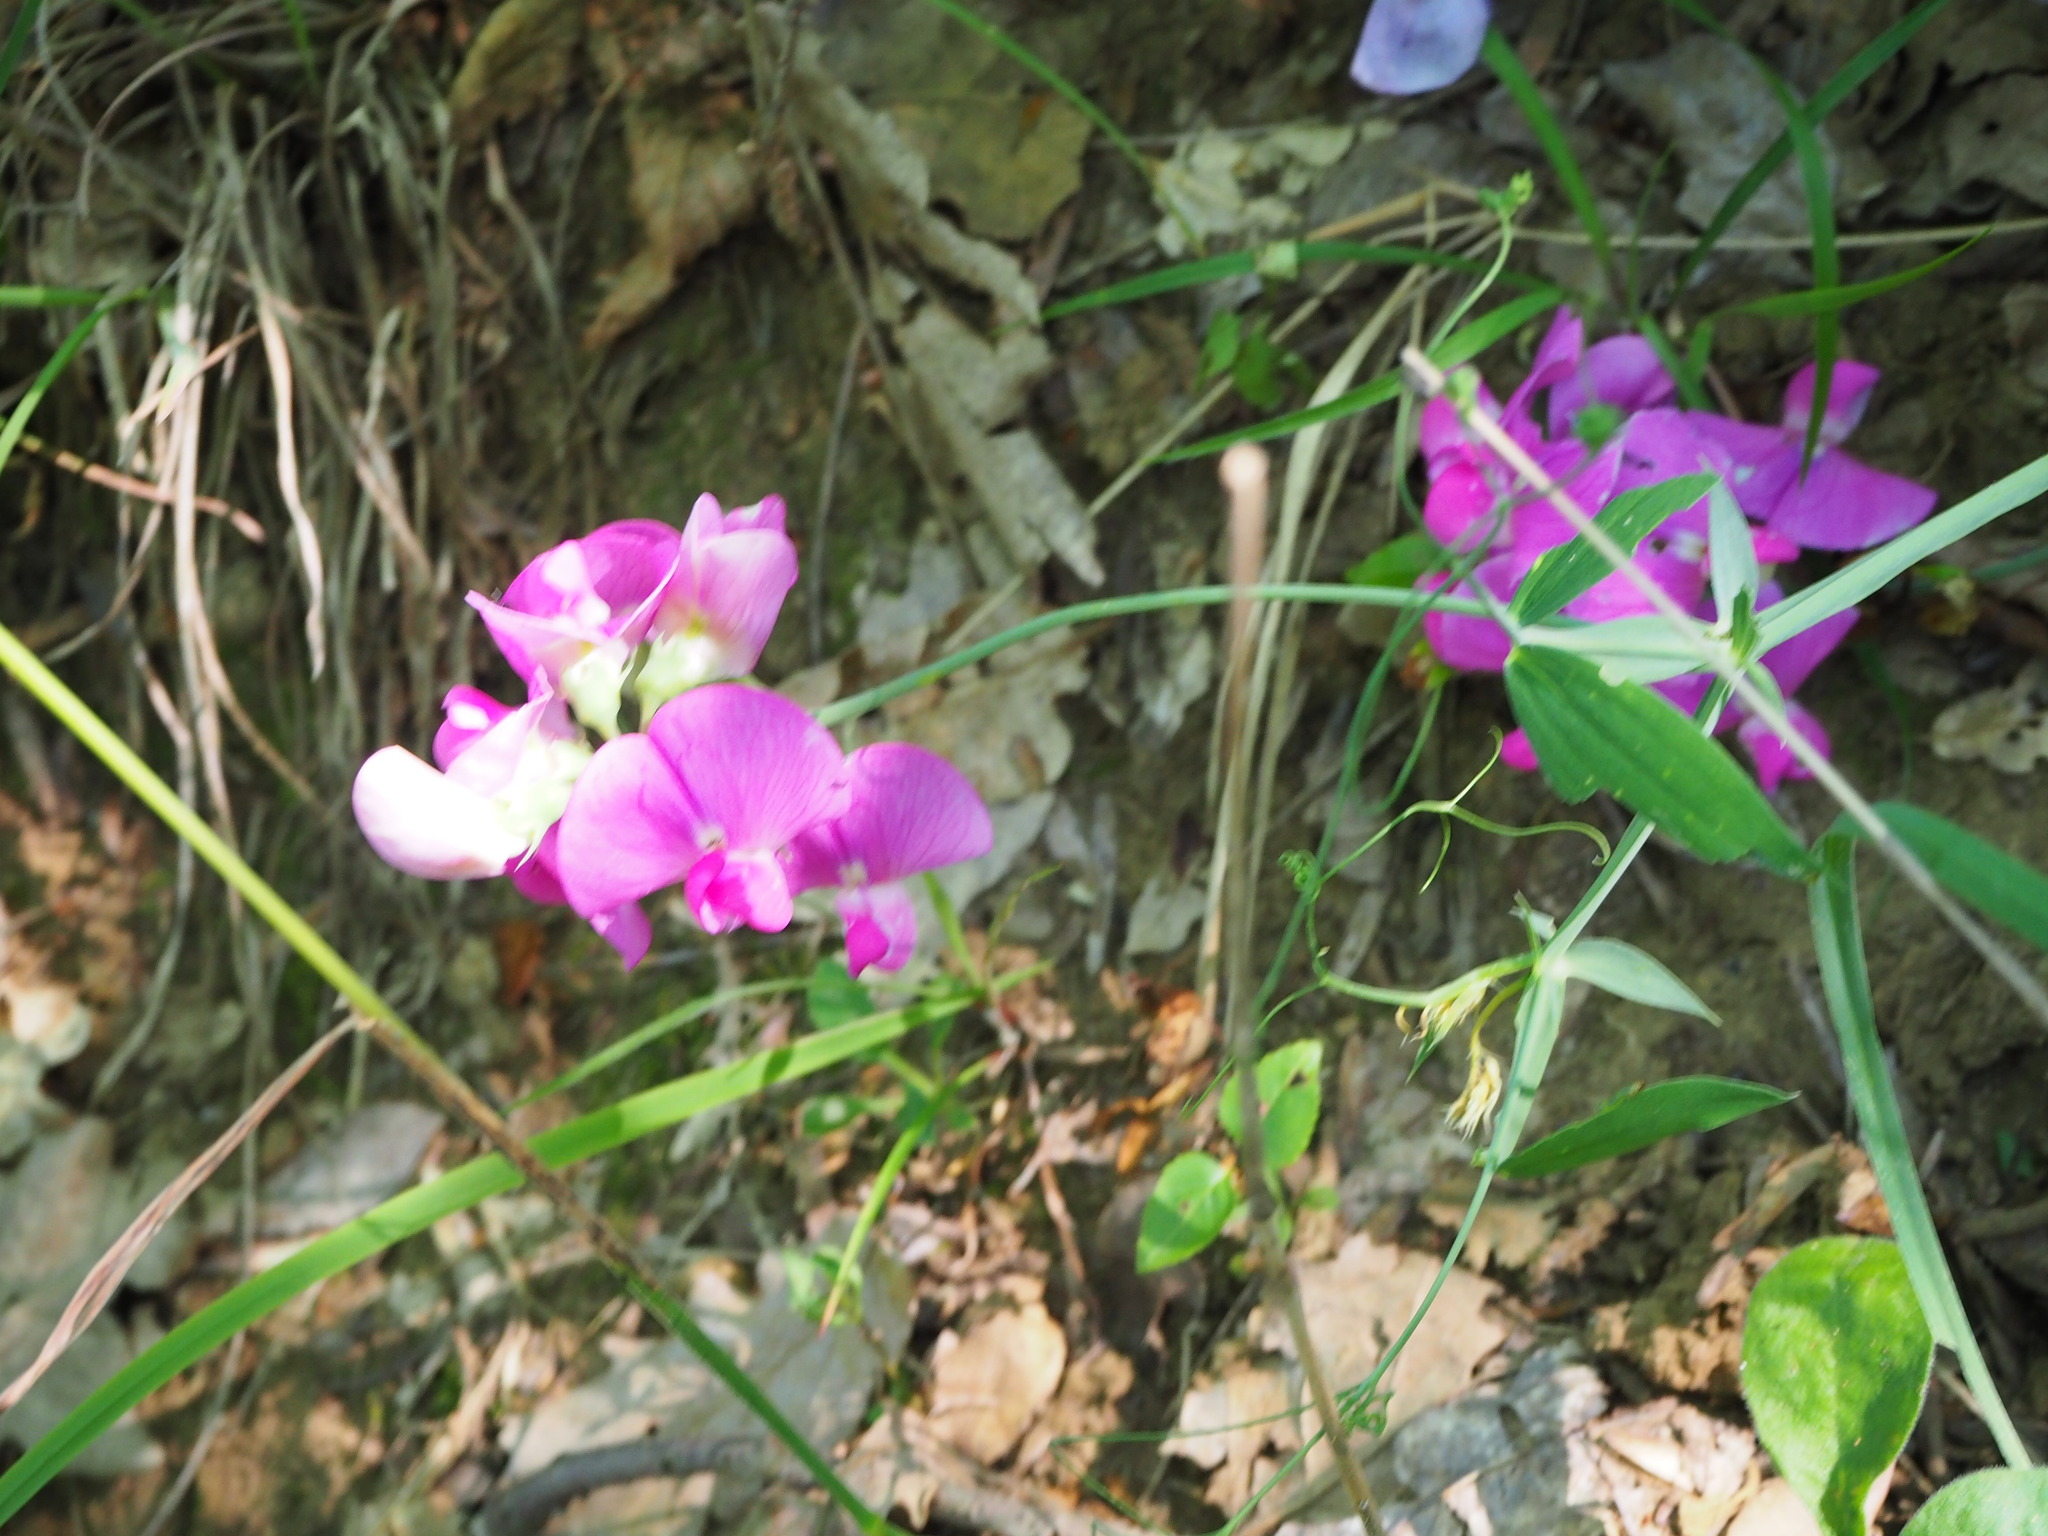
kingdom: Plantae
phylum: Tracheophyta
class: Magnoliopsida
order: Fabales
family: Fabaceae
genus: Lathyrus
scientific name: Lathyrus latifolius
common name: Perennial pea
